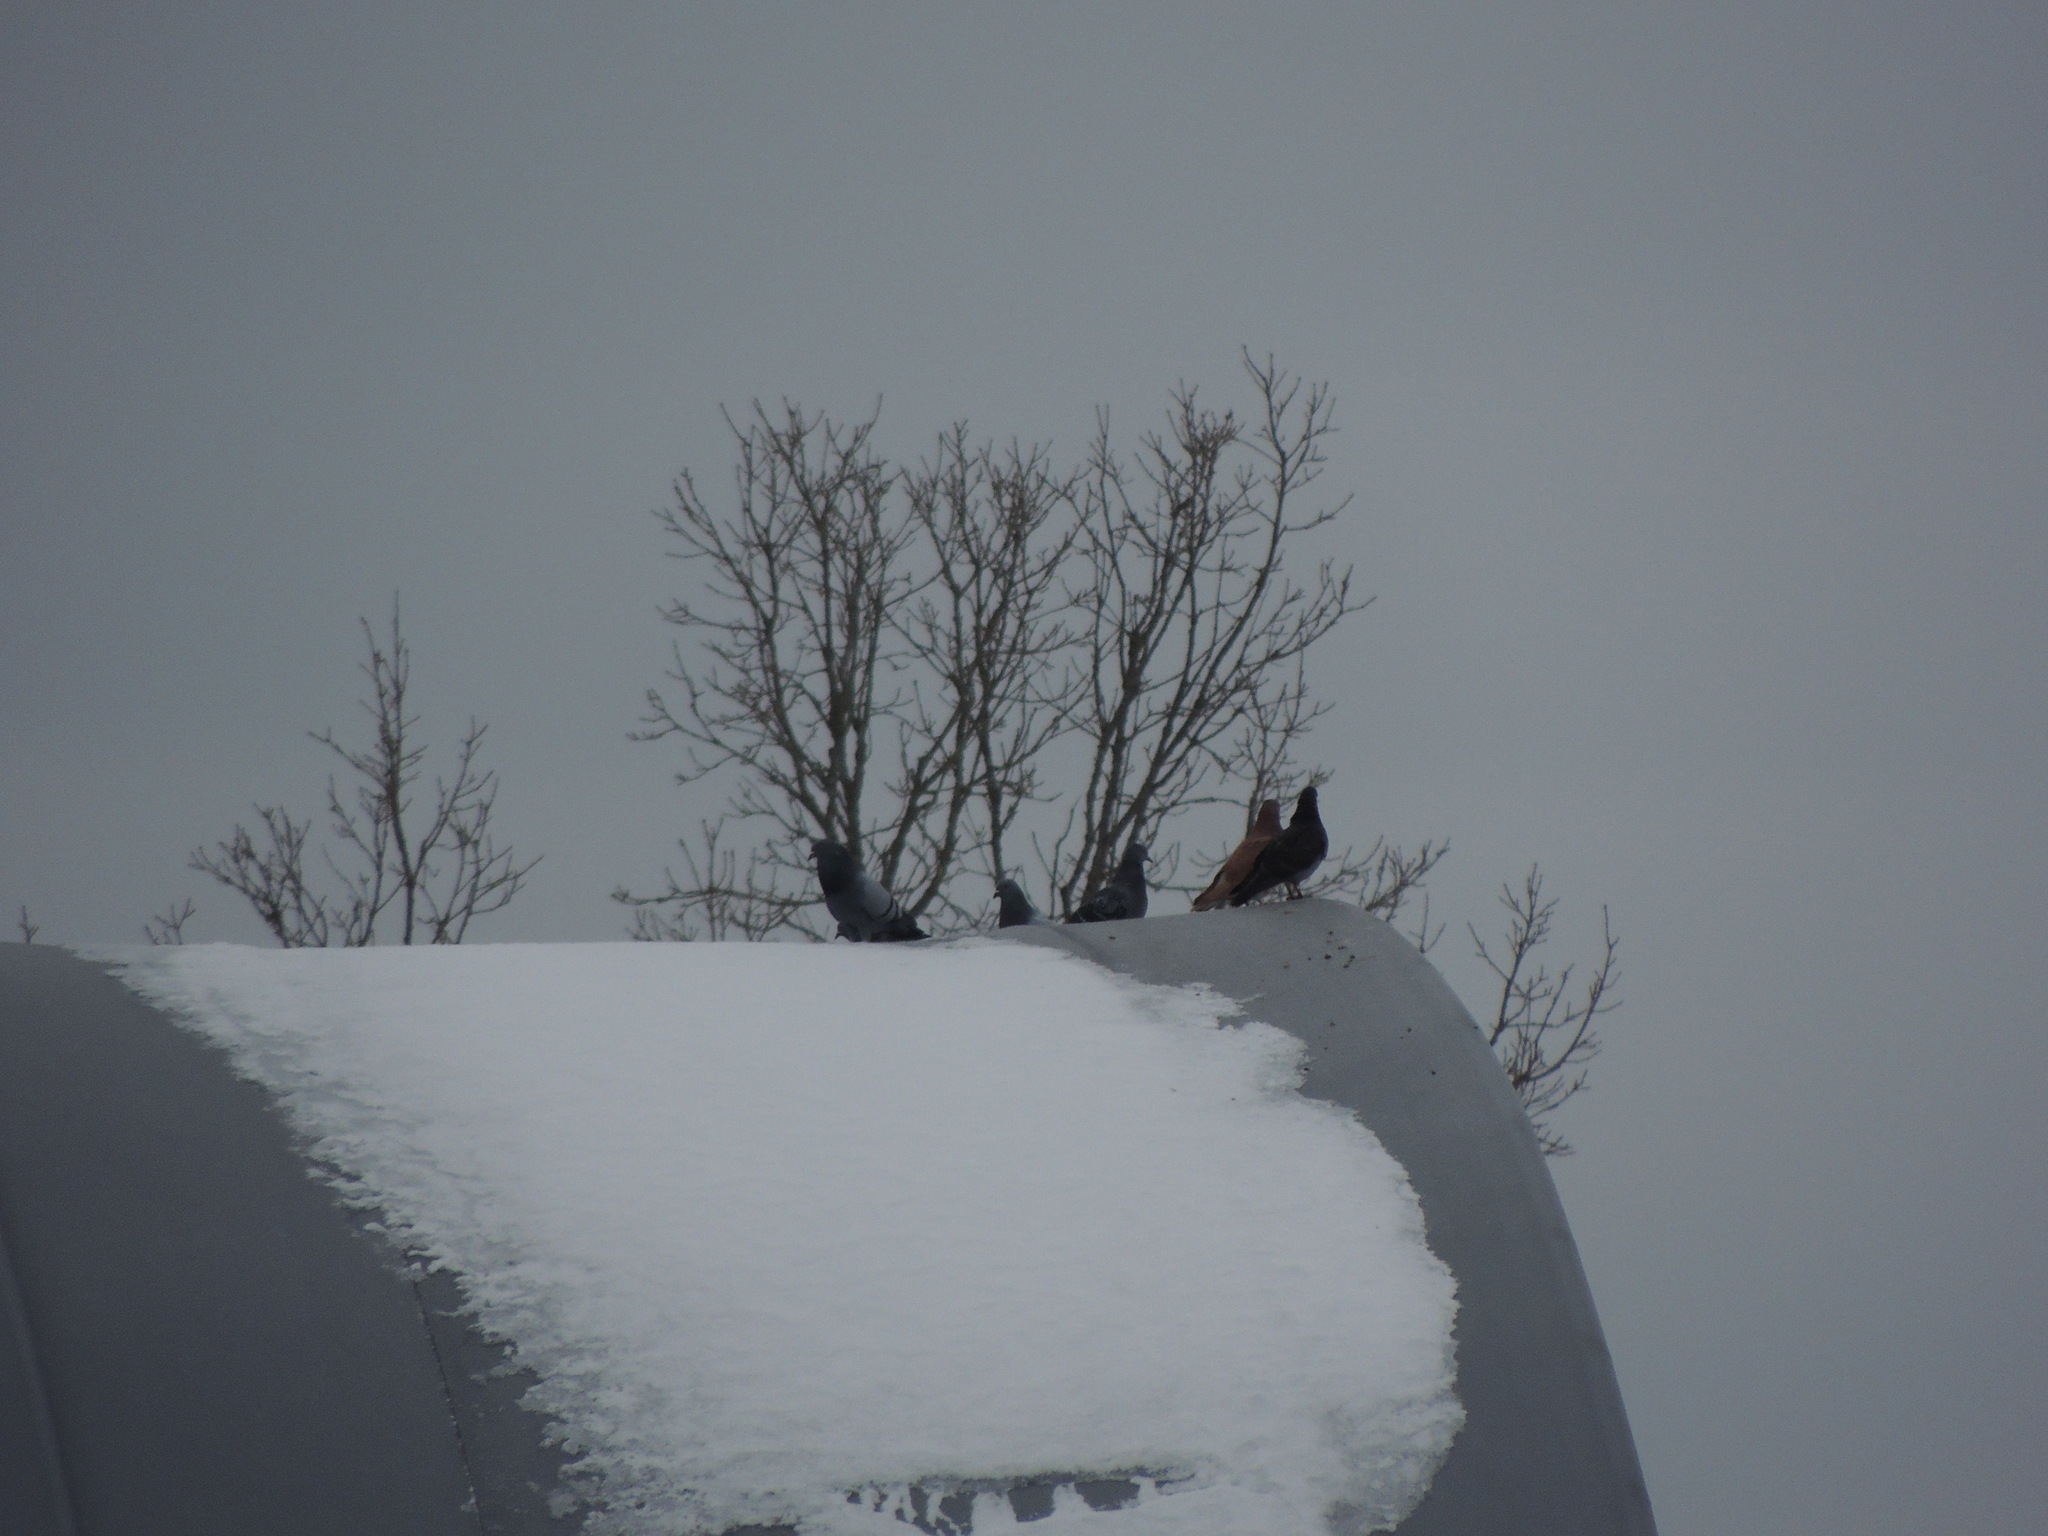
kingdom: Animalia
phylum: Chordata
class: Aves
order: Columbiformes
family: Columbidae
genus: Columba
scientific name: Columba livia
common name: Rock pigeon
